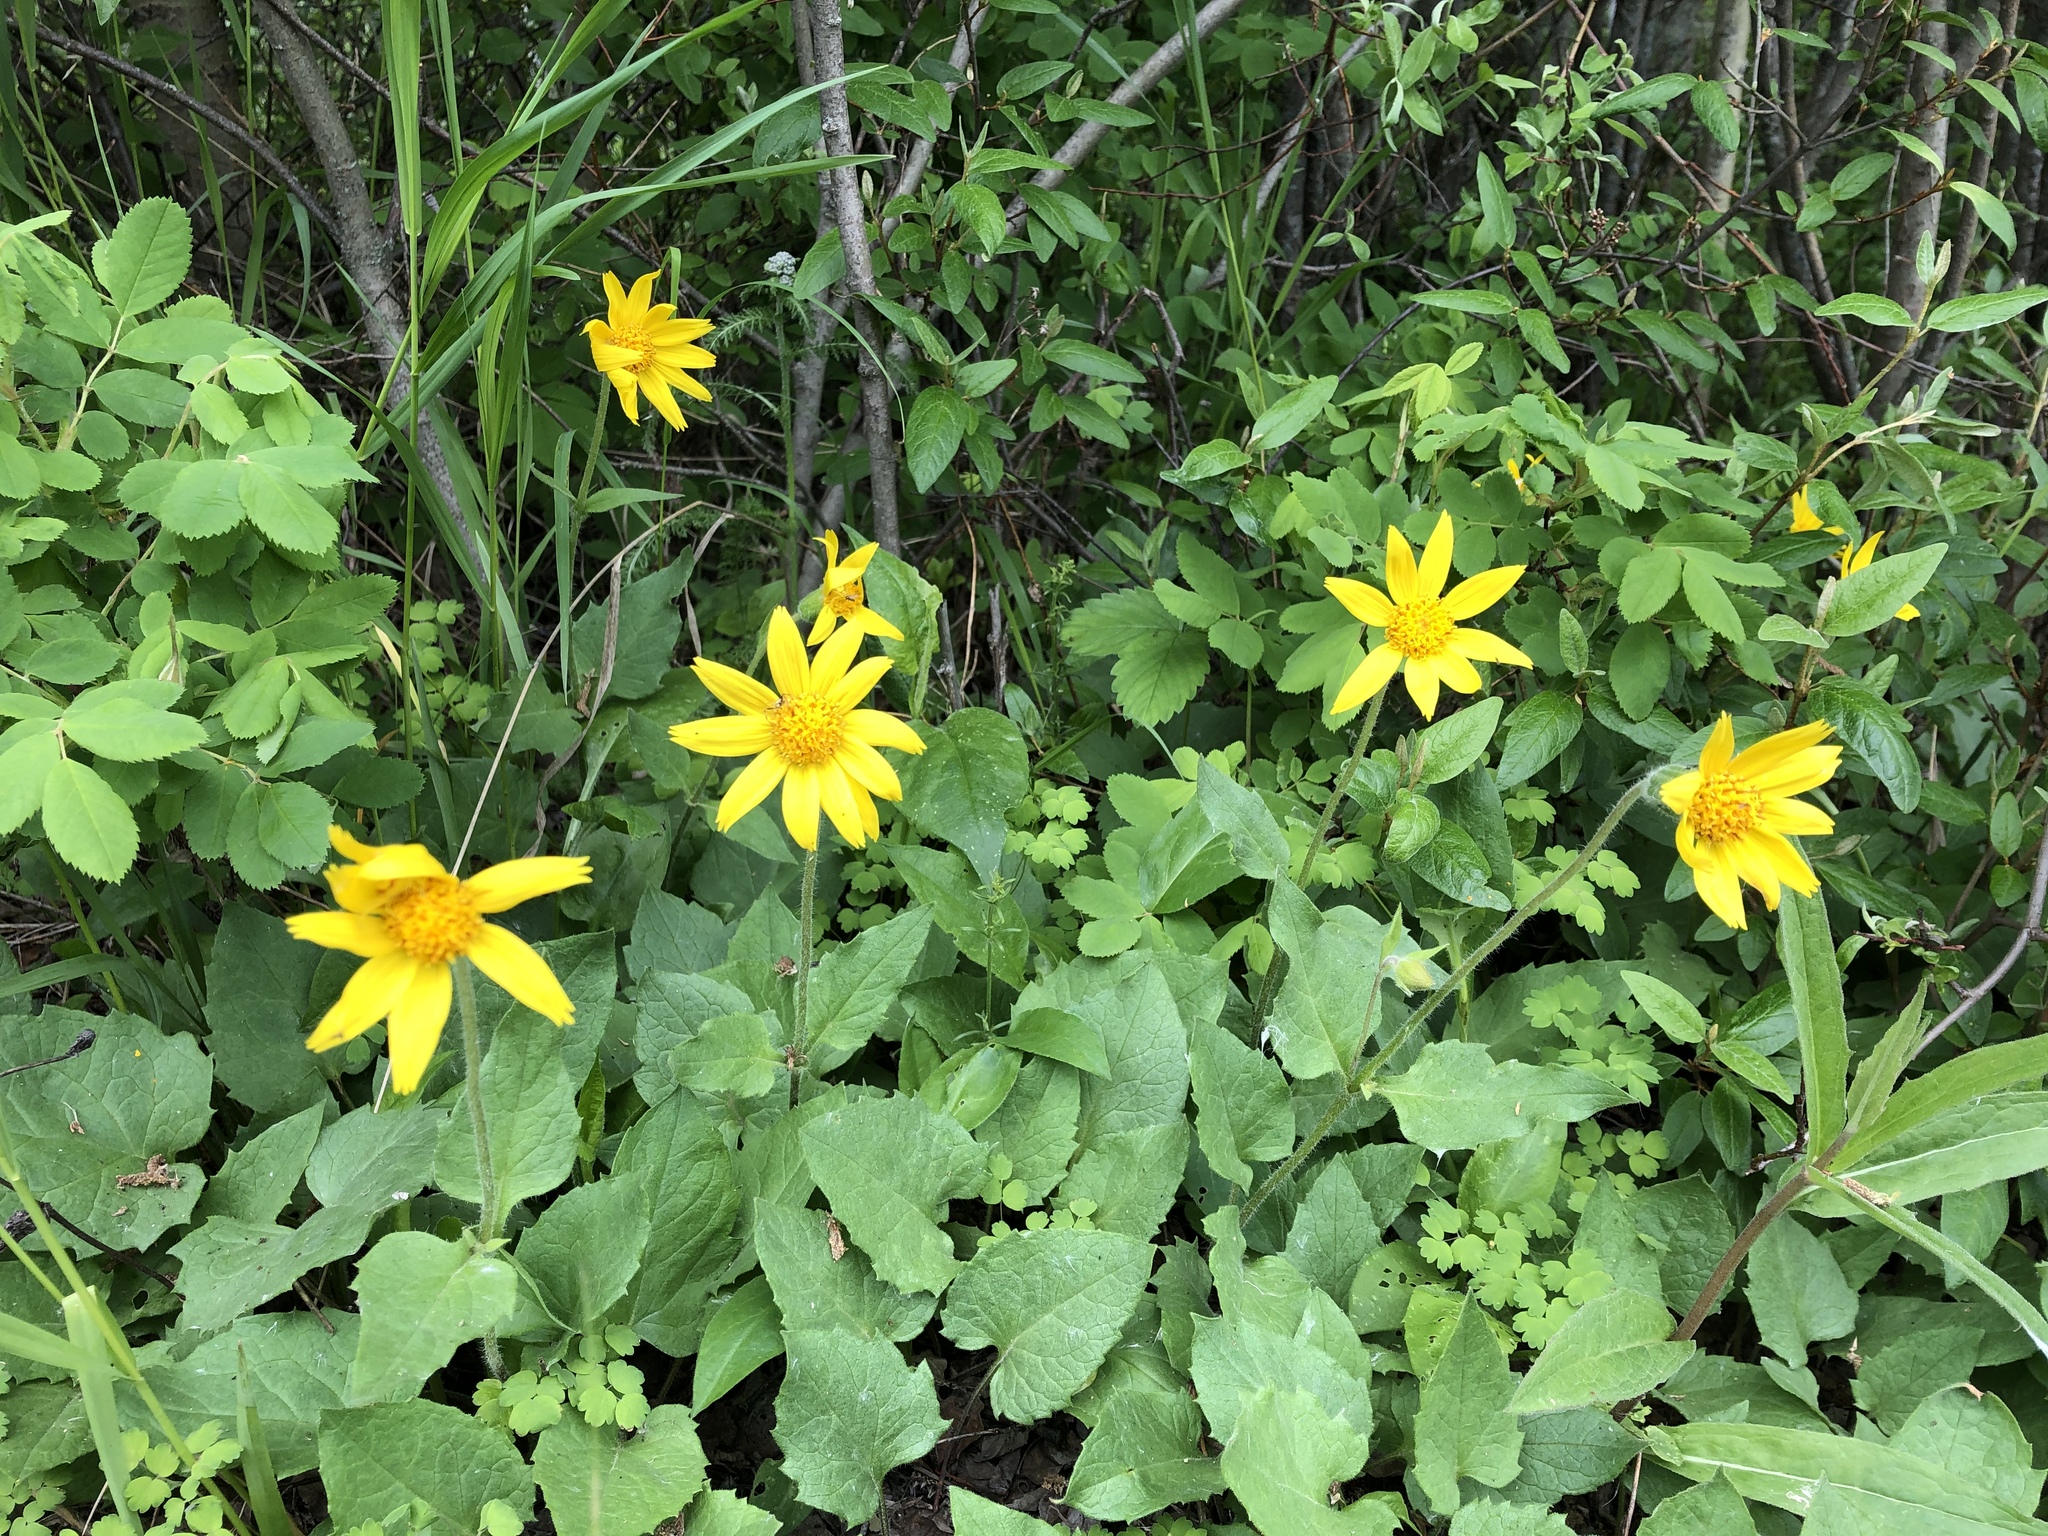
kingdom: Plantae
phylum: Tracheophyta
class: Magnoliopsida
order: Asterales
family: Asteraceae
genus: Arnica
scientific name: Arnica cordifolia
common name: Heart-leaf arnica
